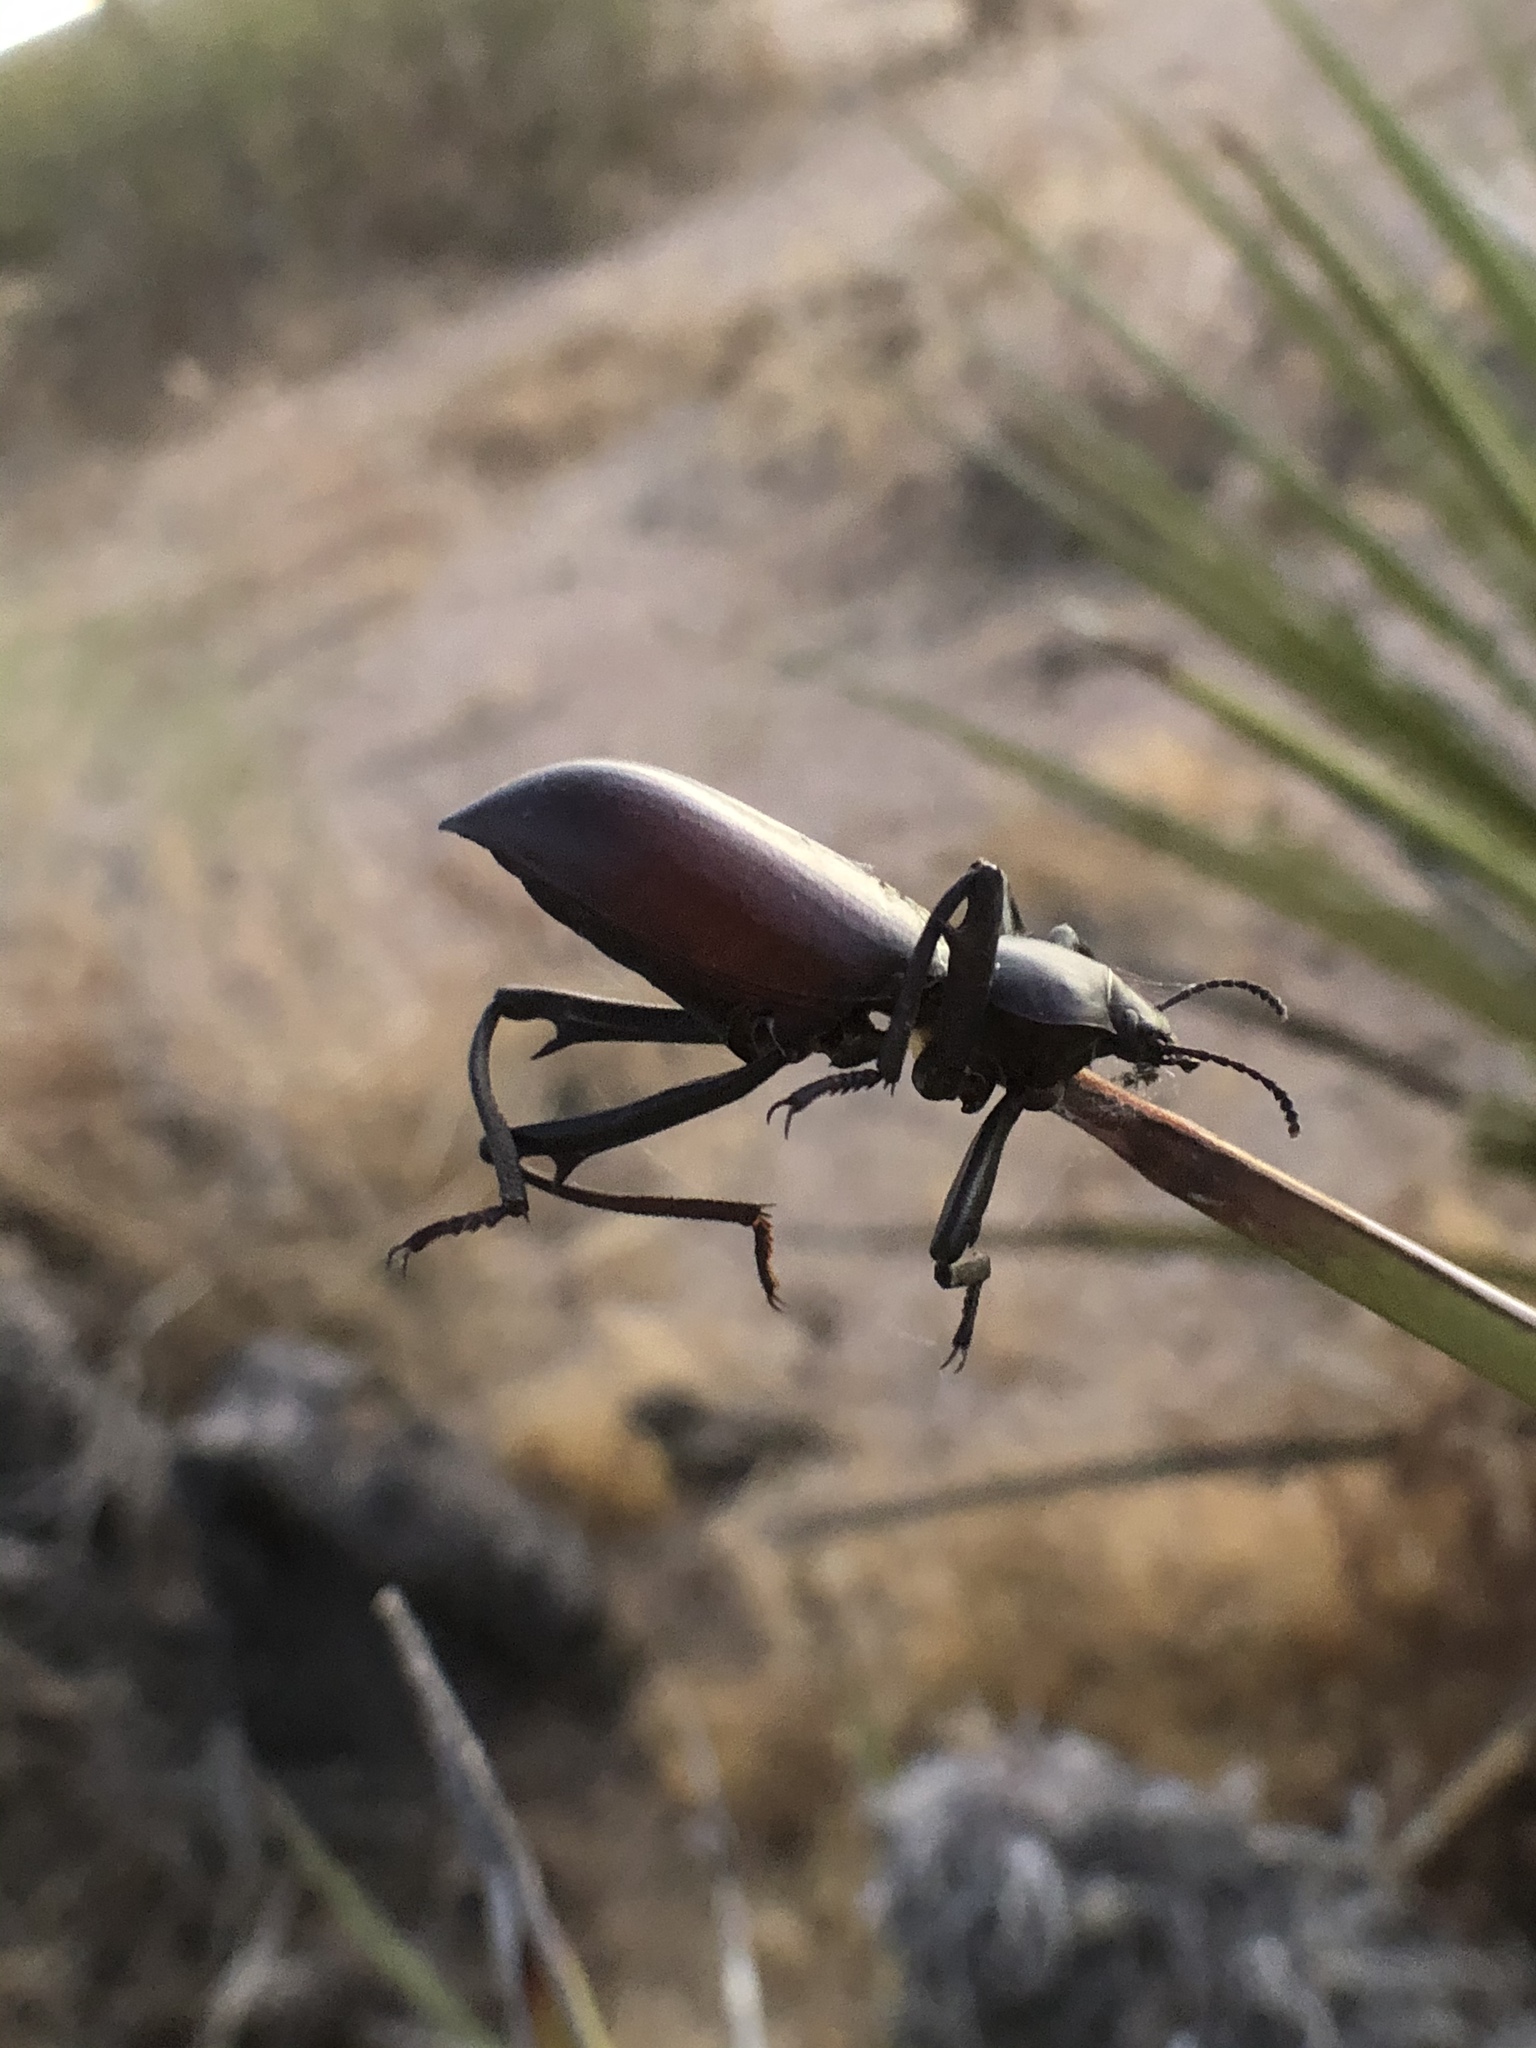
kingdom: Animalia
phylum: Arthropoda
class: Insecta
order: Coleoptera
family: Tenebrionidae
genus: Eleodes
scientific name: Eleodes armata
